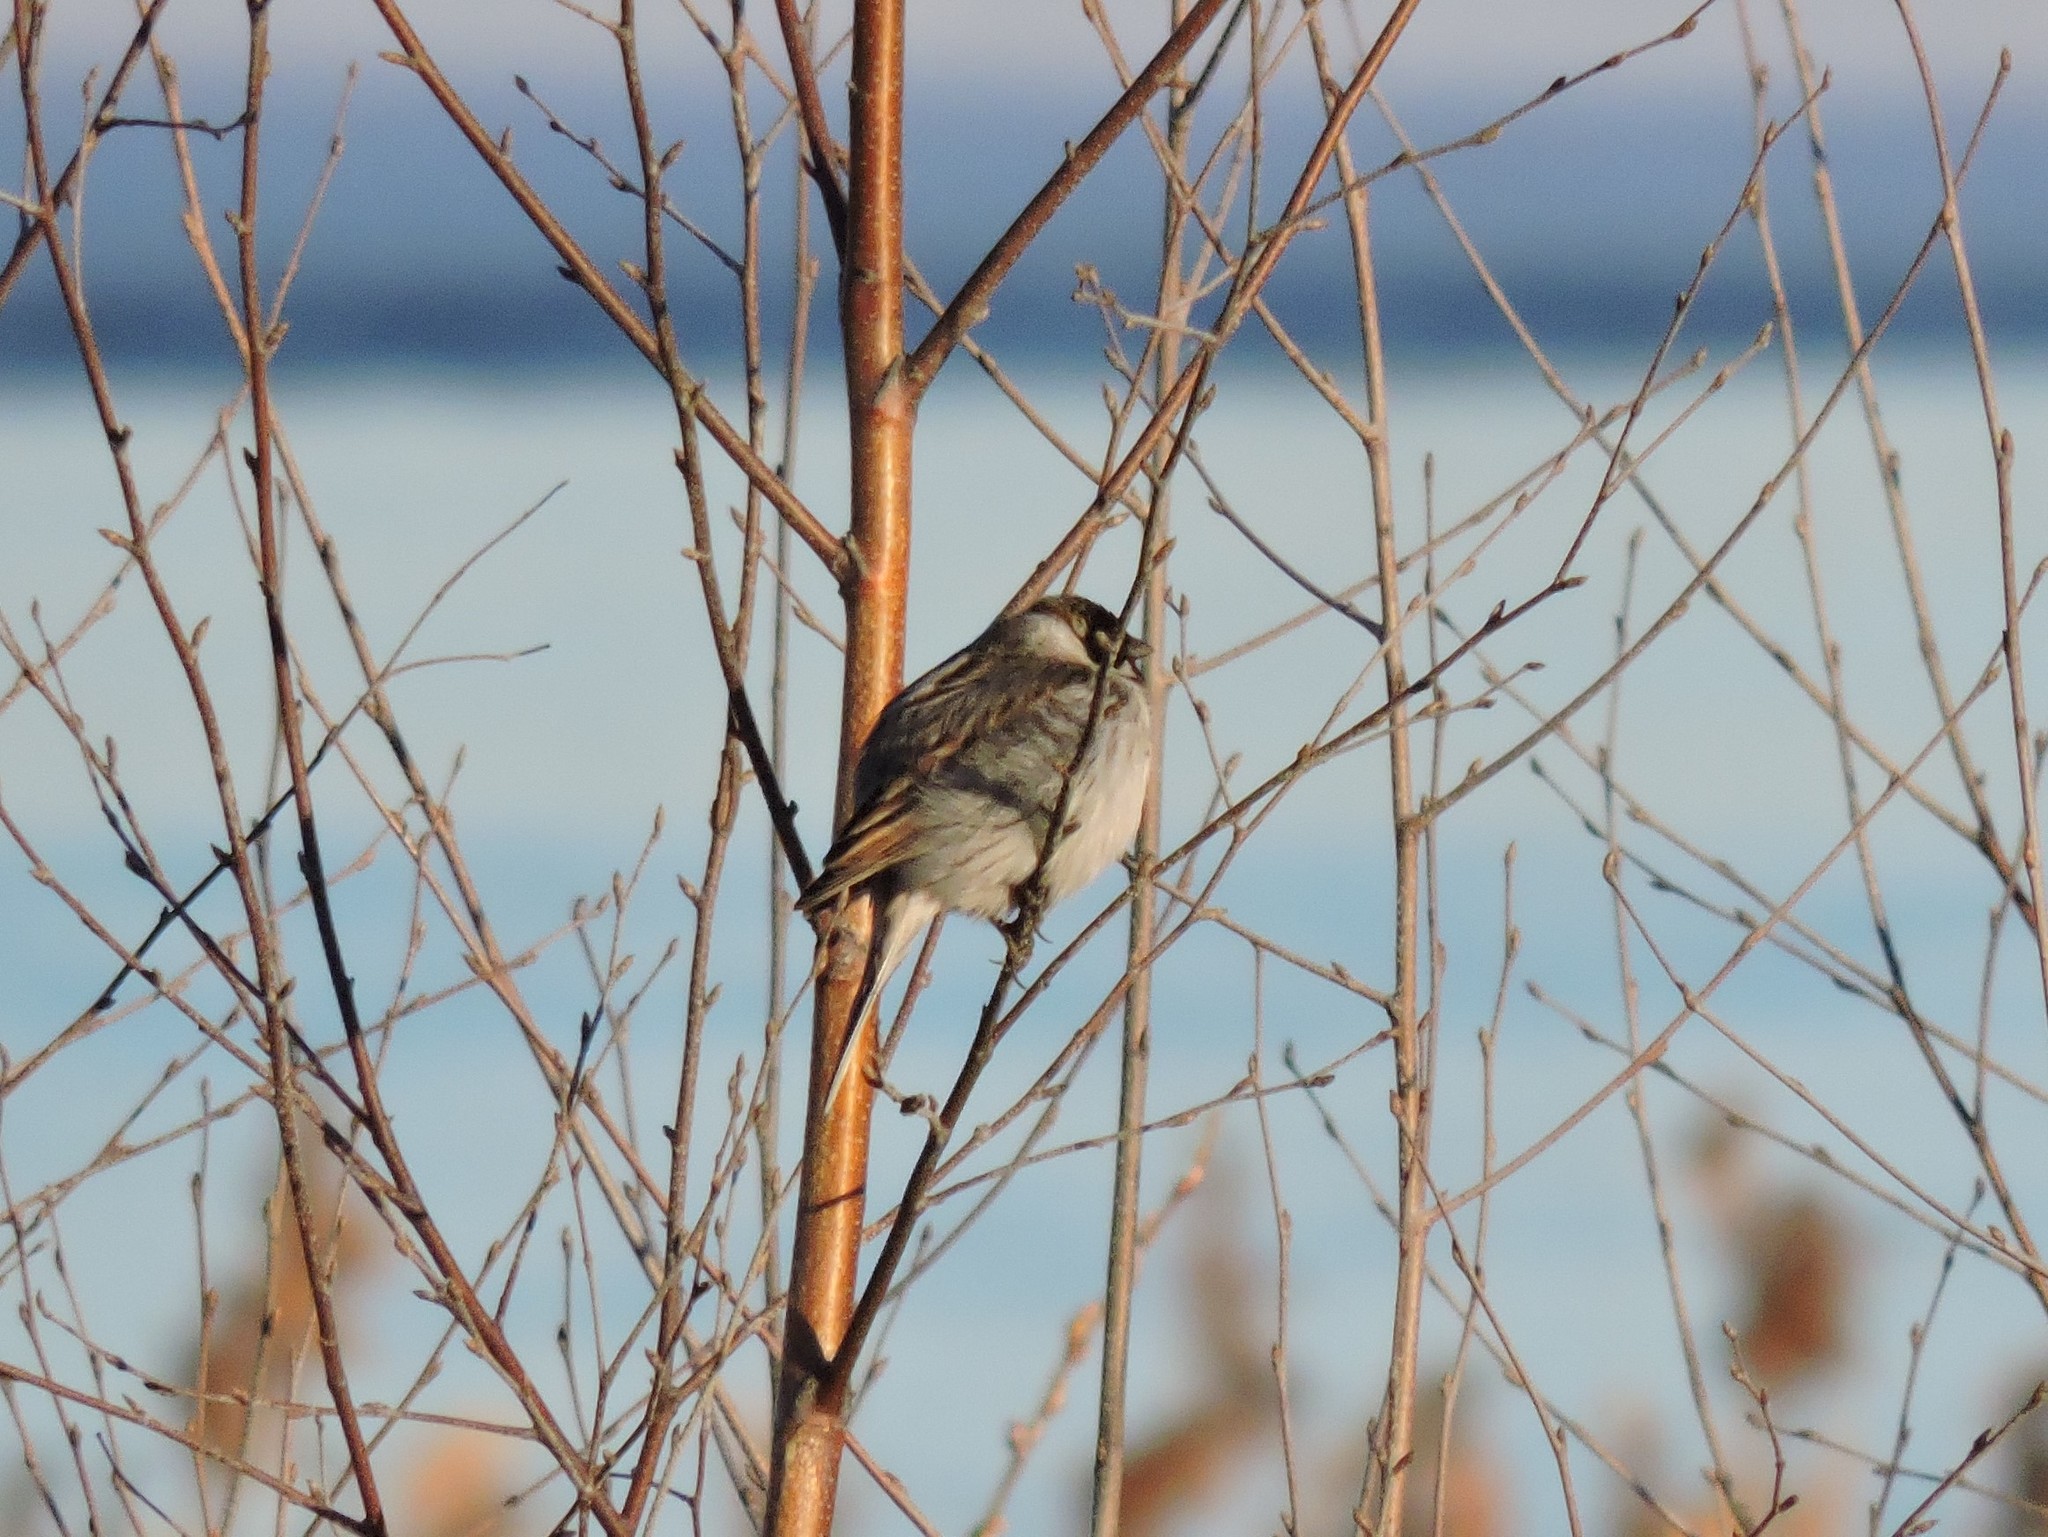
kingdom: Animalia
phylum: Chordata
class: Aves
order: Passeriformes
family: Emberizidae
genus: Emberiza
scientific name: Emberiza schoeniclus
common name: Reed bunting
